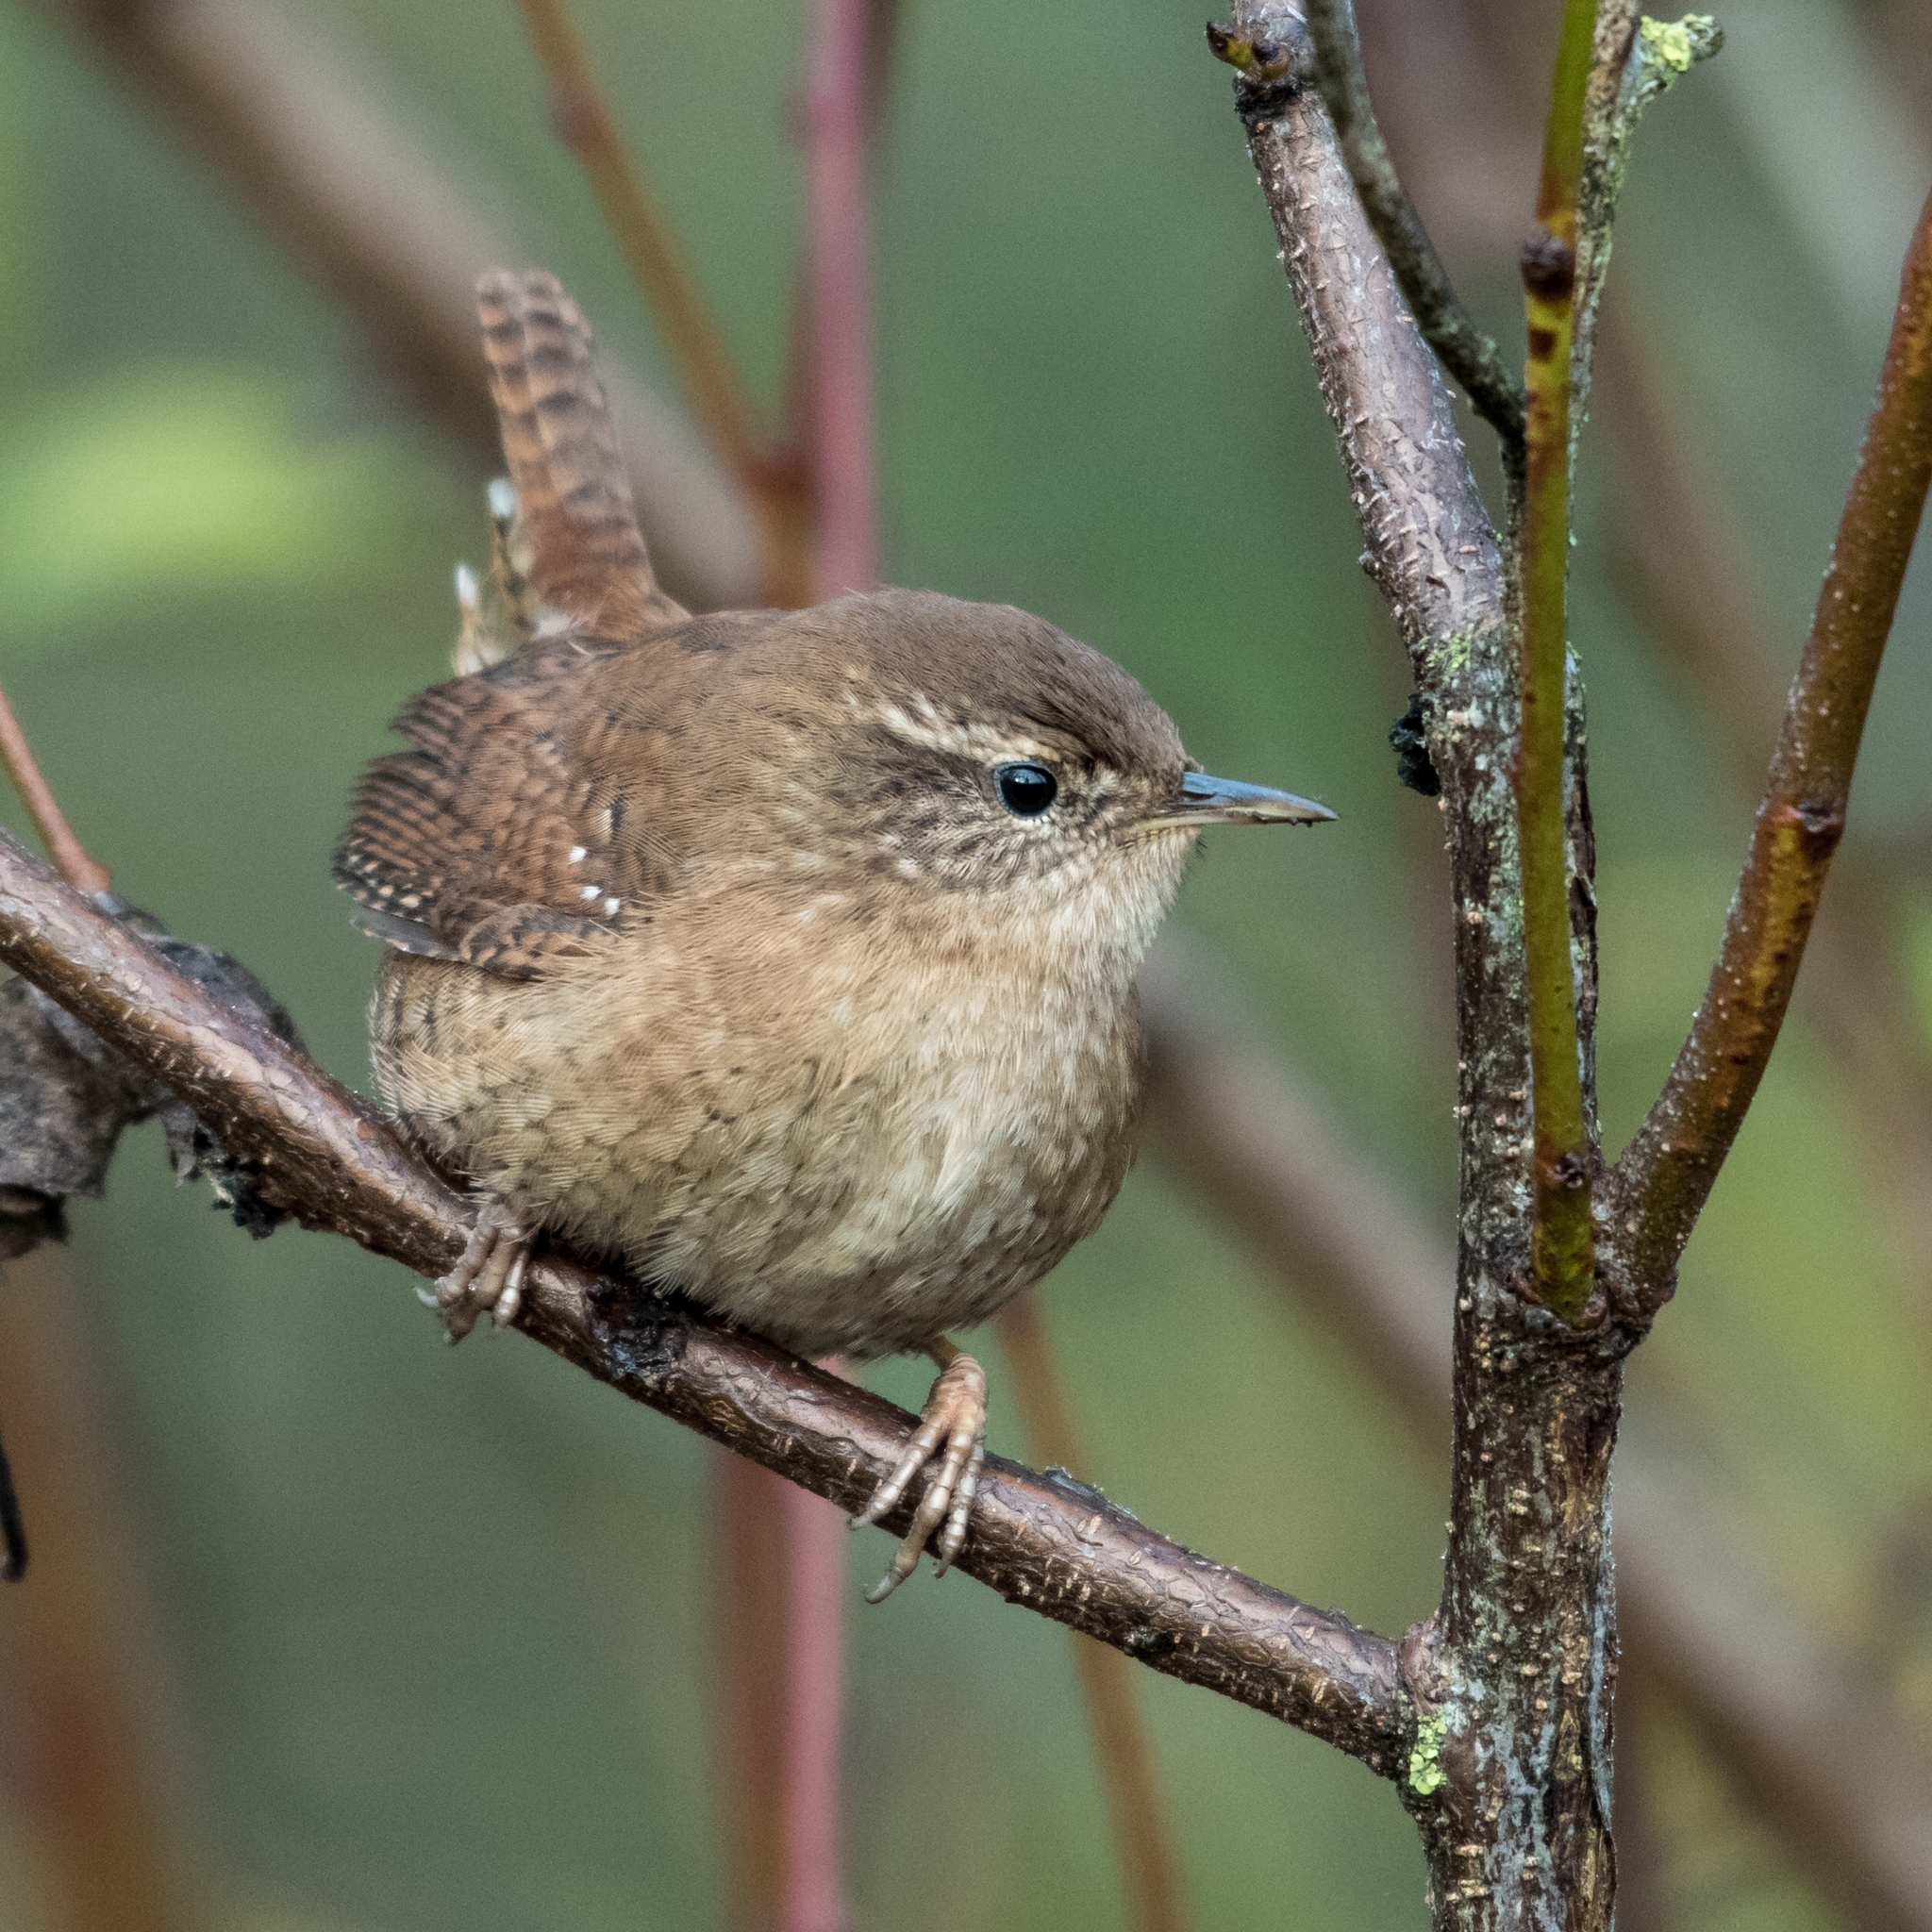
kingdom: Animalia
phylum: Chordata
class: Aves
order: Passeriformes
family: Troglodytidae
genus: Troglodytes
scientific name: Troglodytes troglodytes
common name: Eurasian wren
